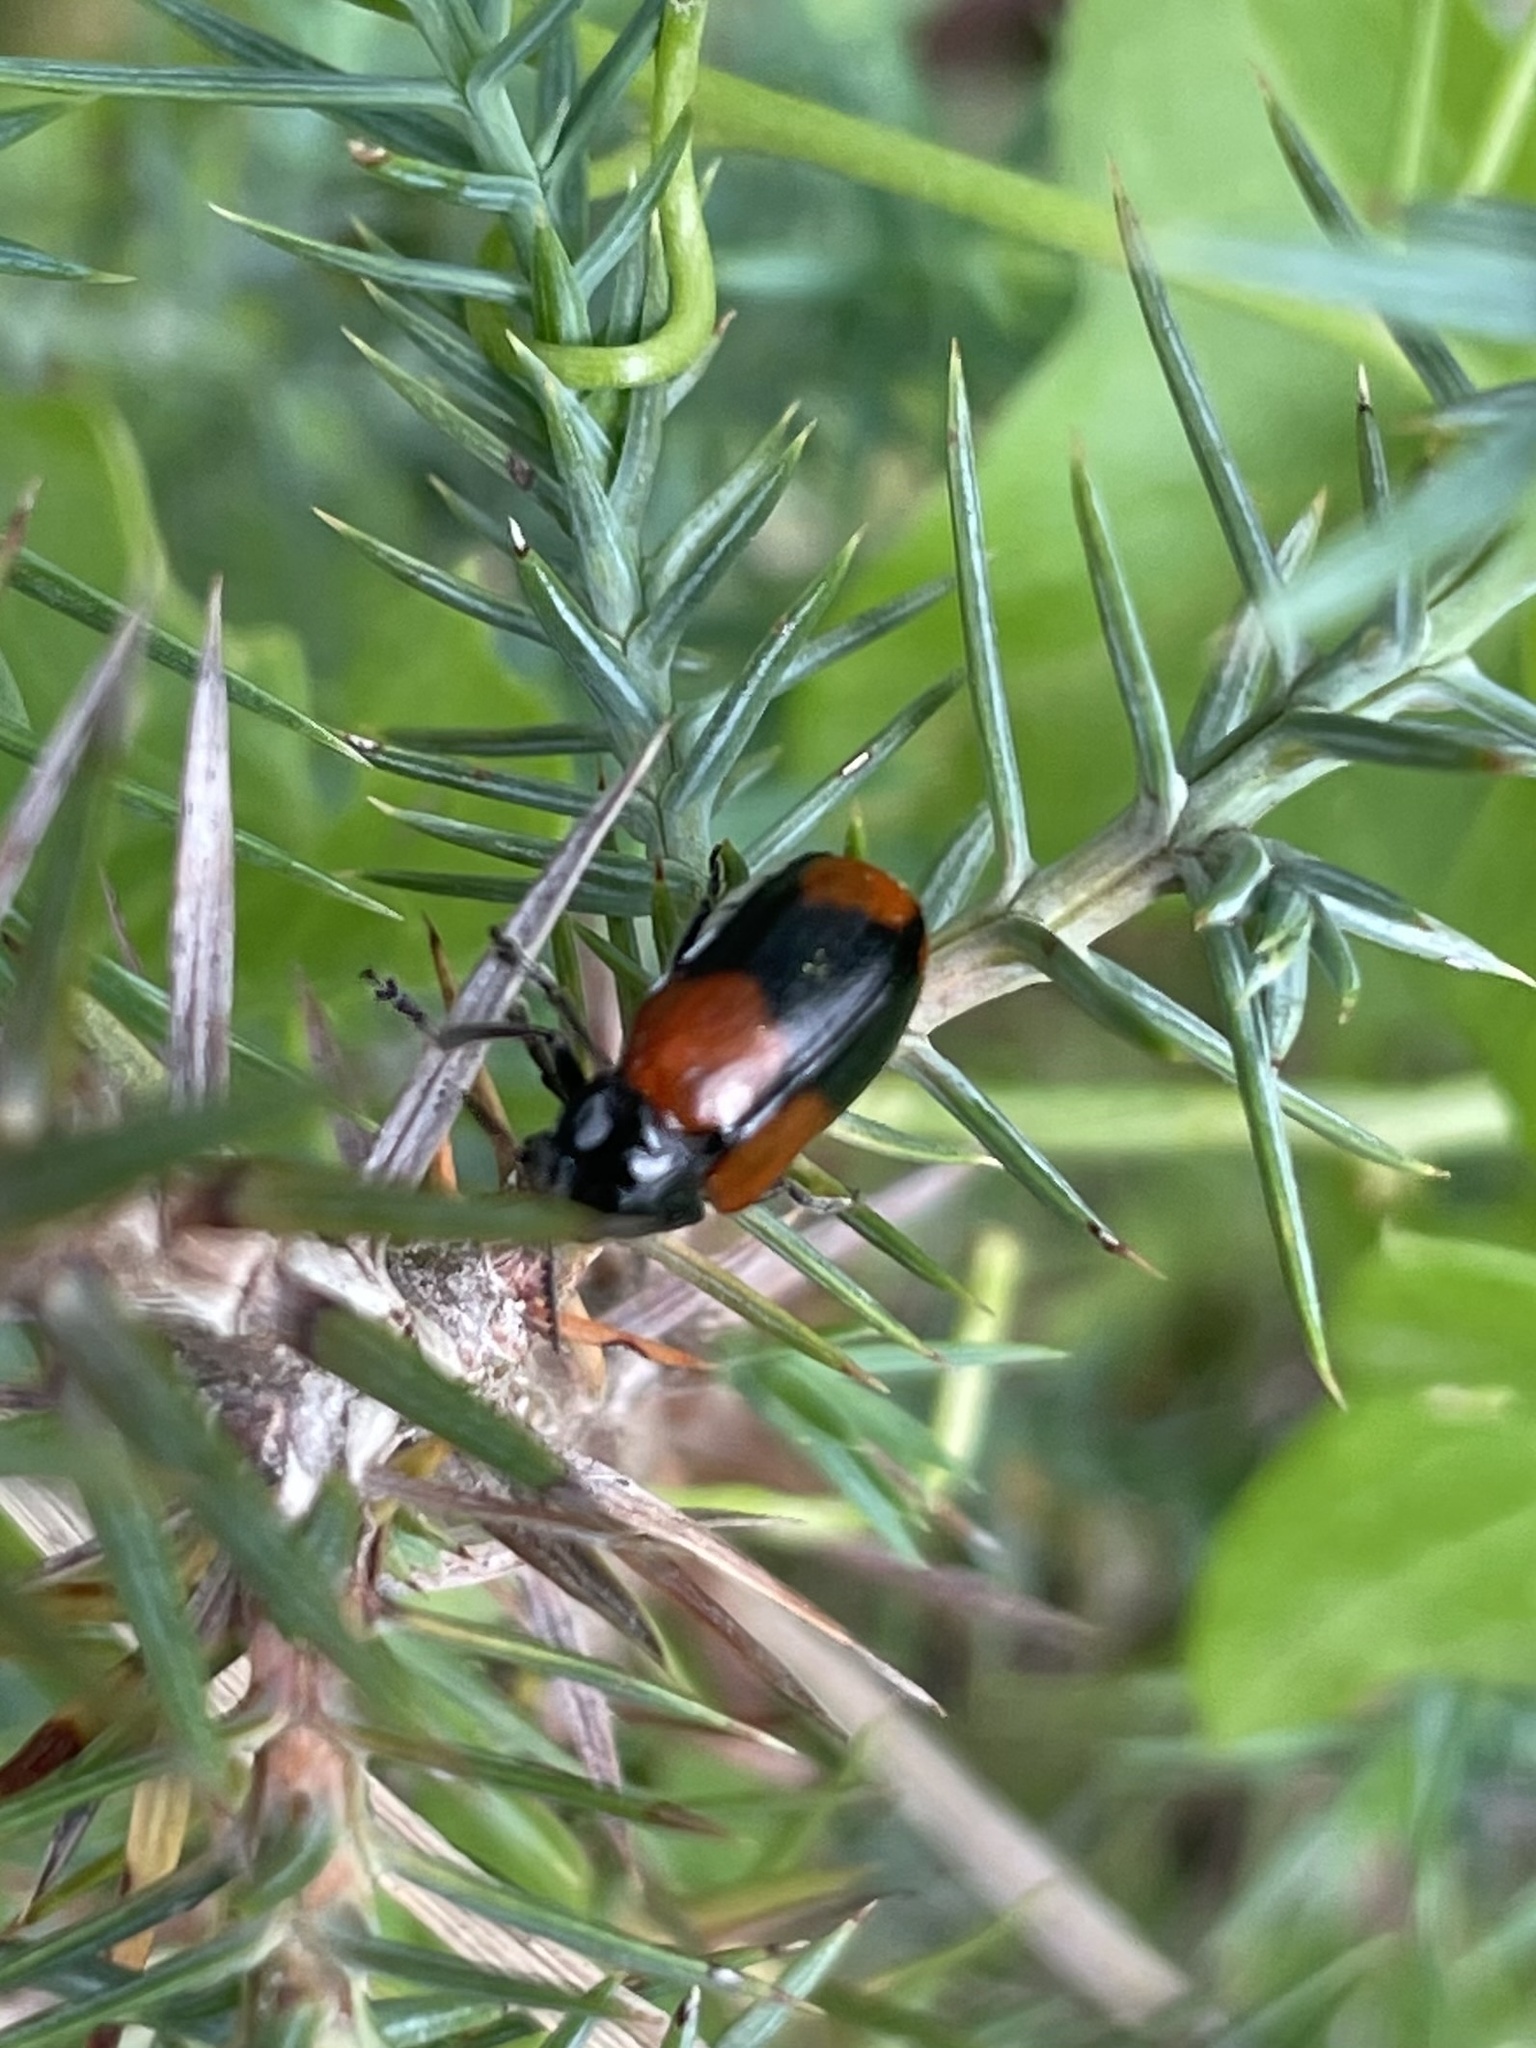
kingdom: Animalia
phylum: Arthropoda
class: Insecta
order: Coleoptera
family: Chrysomelidae
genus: Anomoea
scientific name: Anomoea rufifrons
